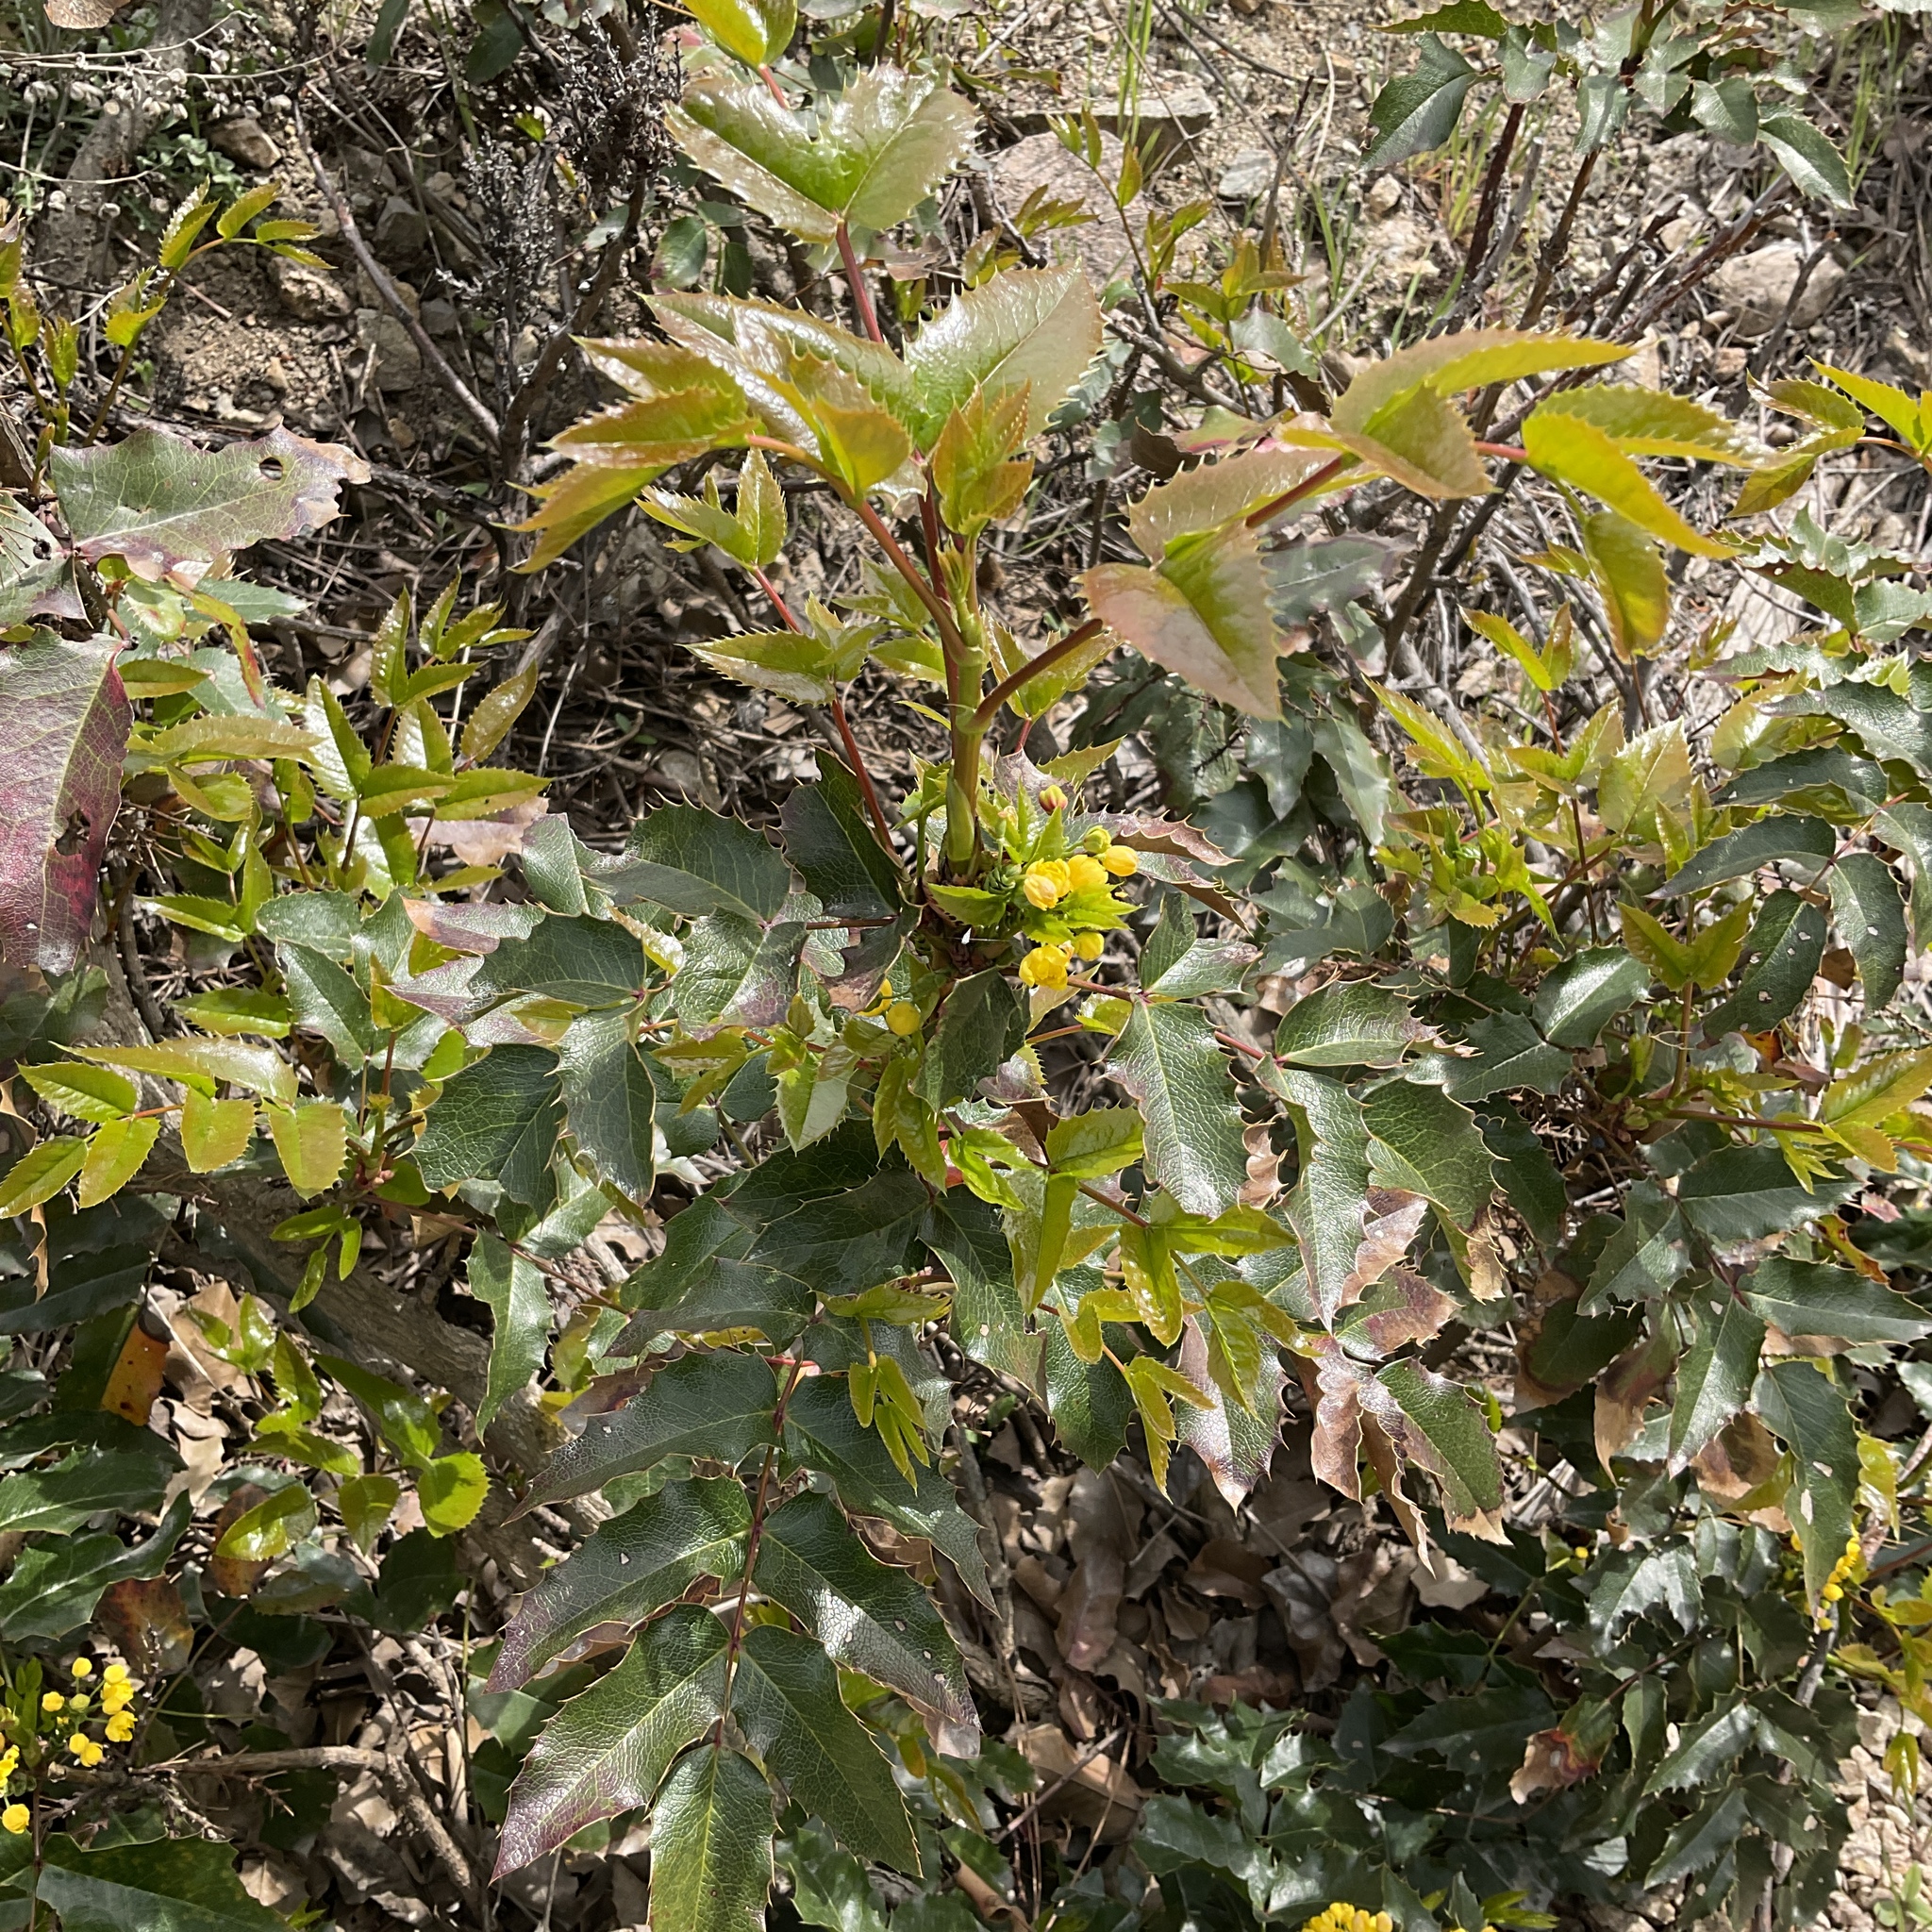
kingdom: Plantae
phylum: Tracheophyta
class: Magnoliopsida
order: Ranunculales
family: Berberidaceae
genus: Mahonia
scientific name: Mahonia aquifolium
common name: Oregon-grape
